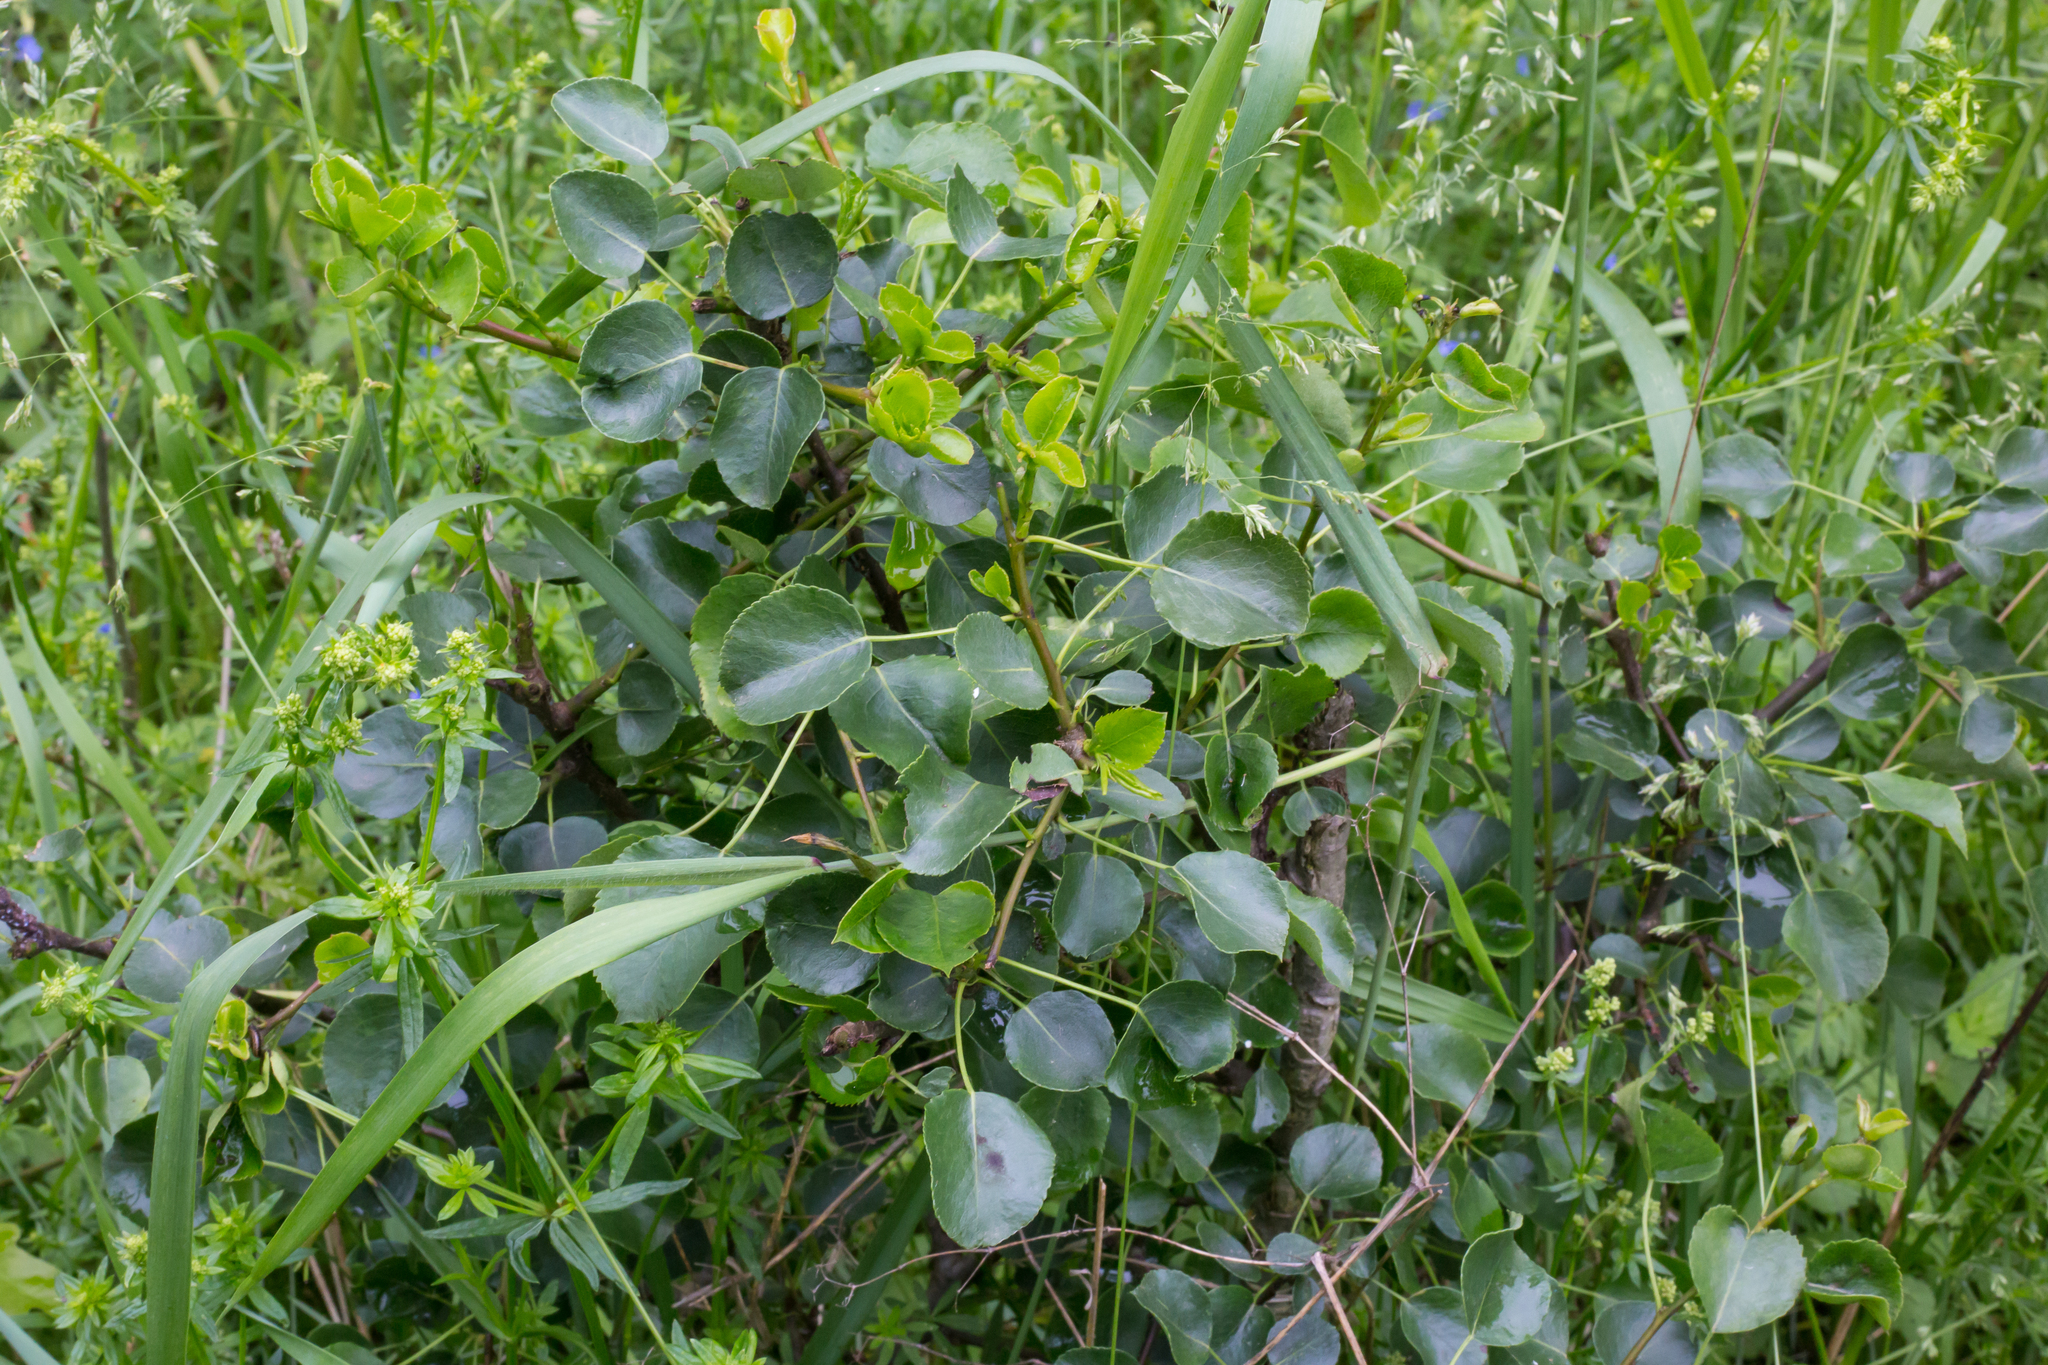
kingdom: Plantae
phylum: Tracheophyta
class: Magnoliopsida
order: Rosales
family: Rosaceae
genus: Pyrus
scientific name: Pyrus
